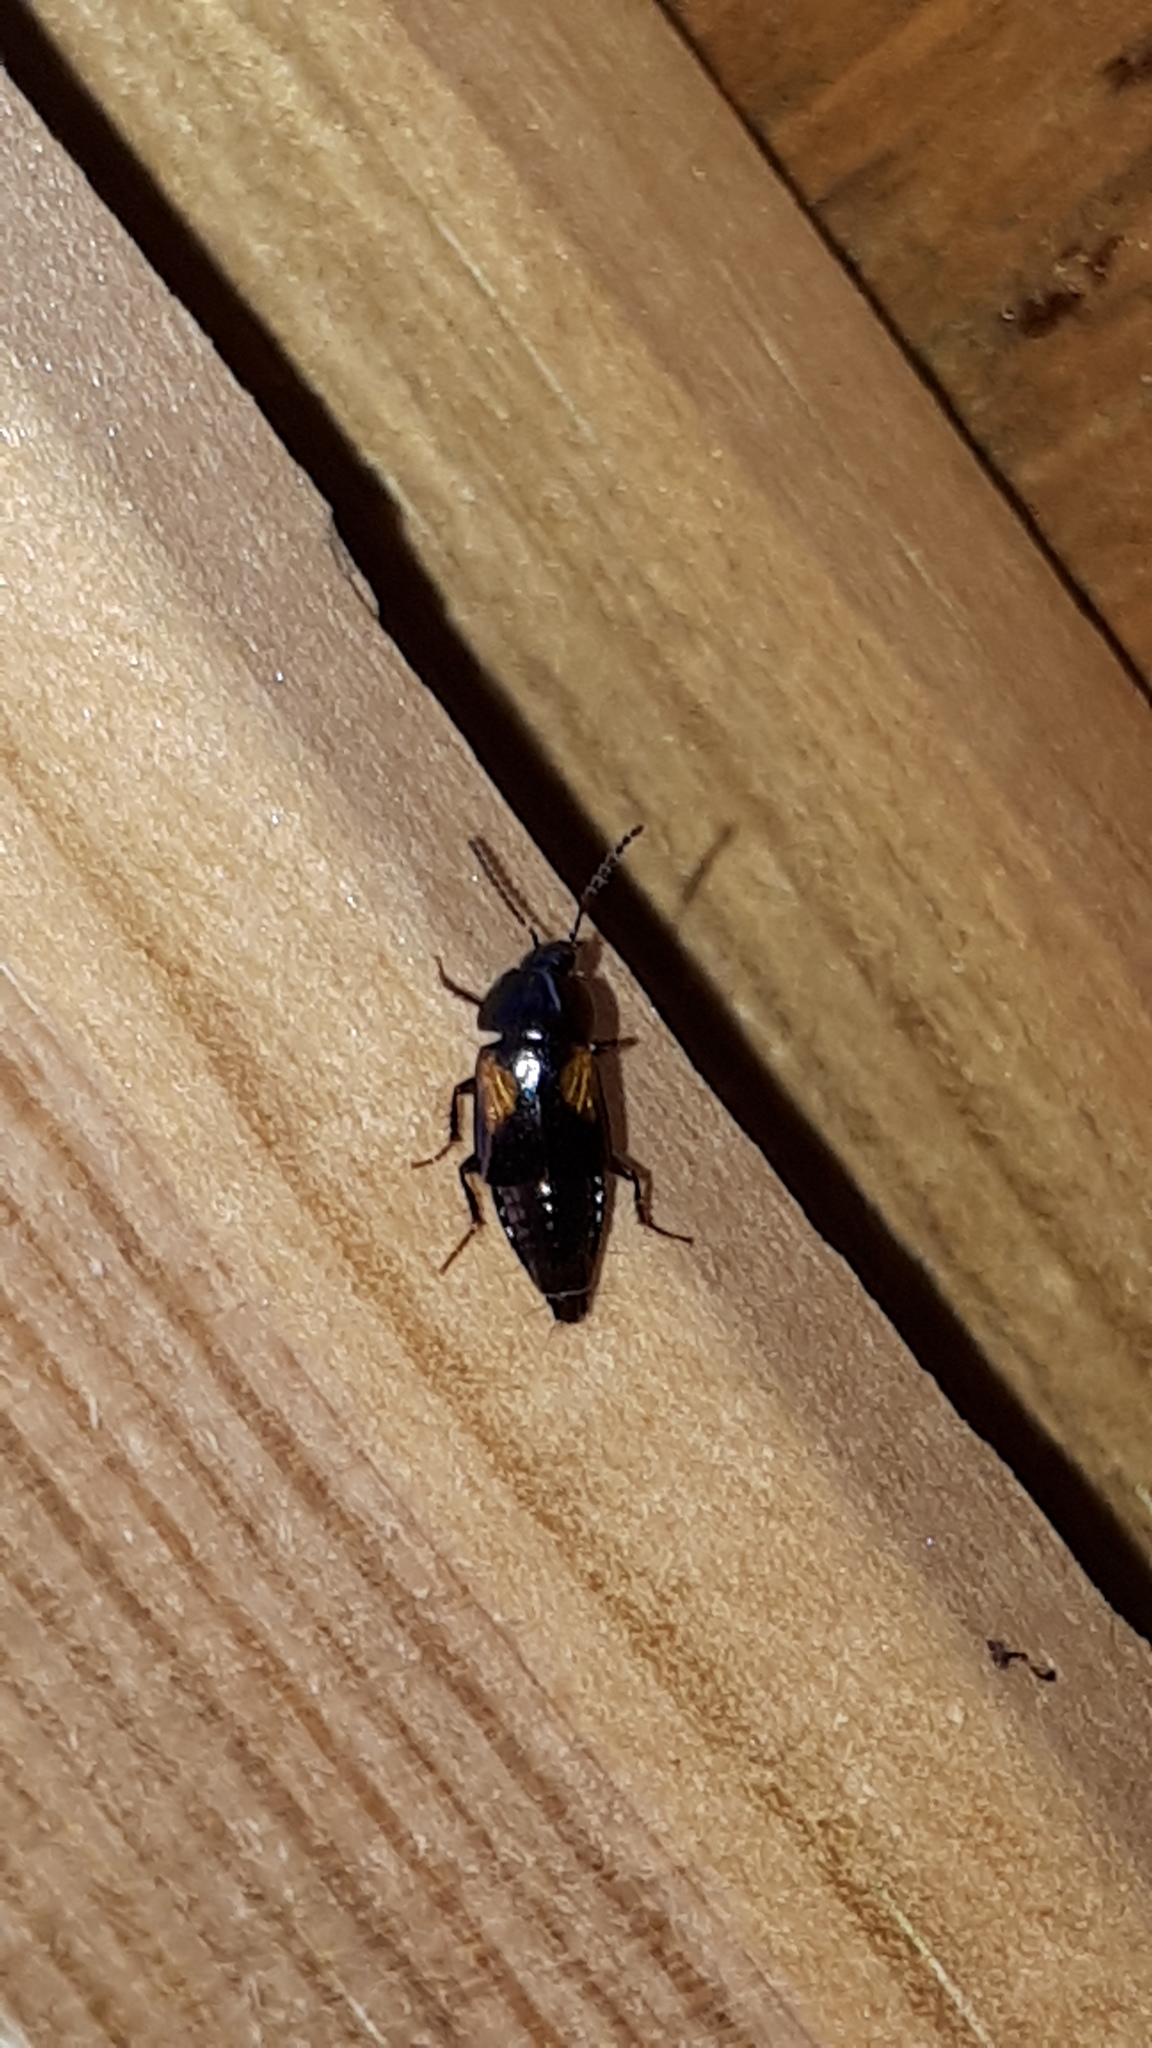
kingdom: Animalia
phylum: Arthropoda
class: Insecta
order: Coleoptera
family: Staphylinidae
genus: Tachinus
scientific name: Tachinus subterraneus
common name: Staph beetle
